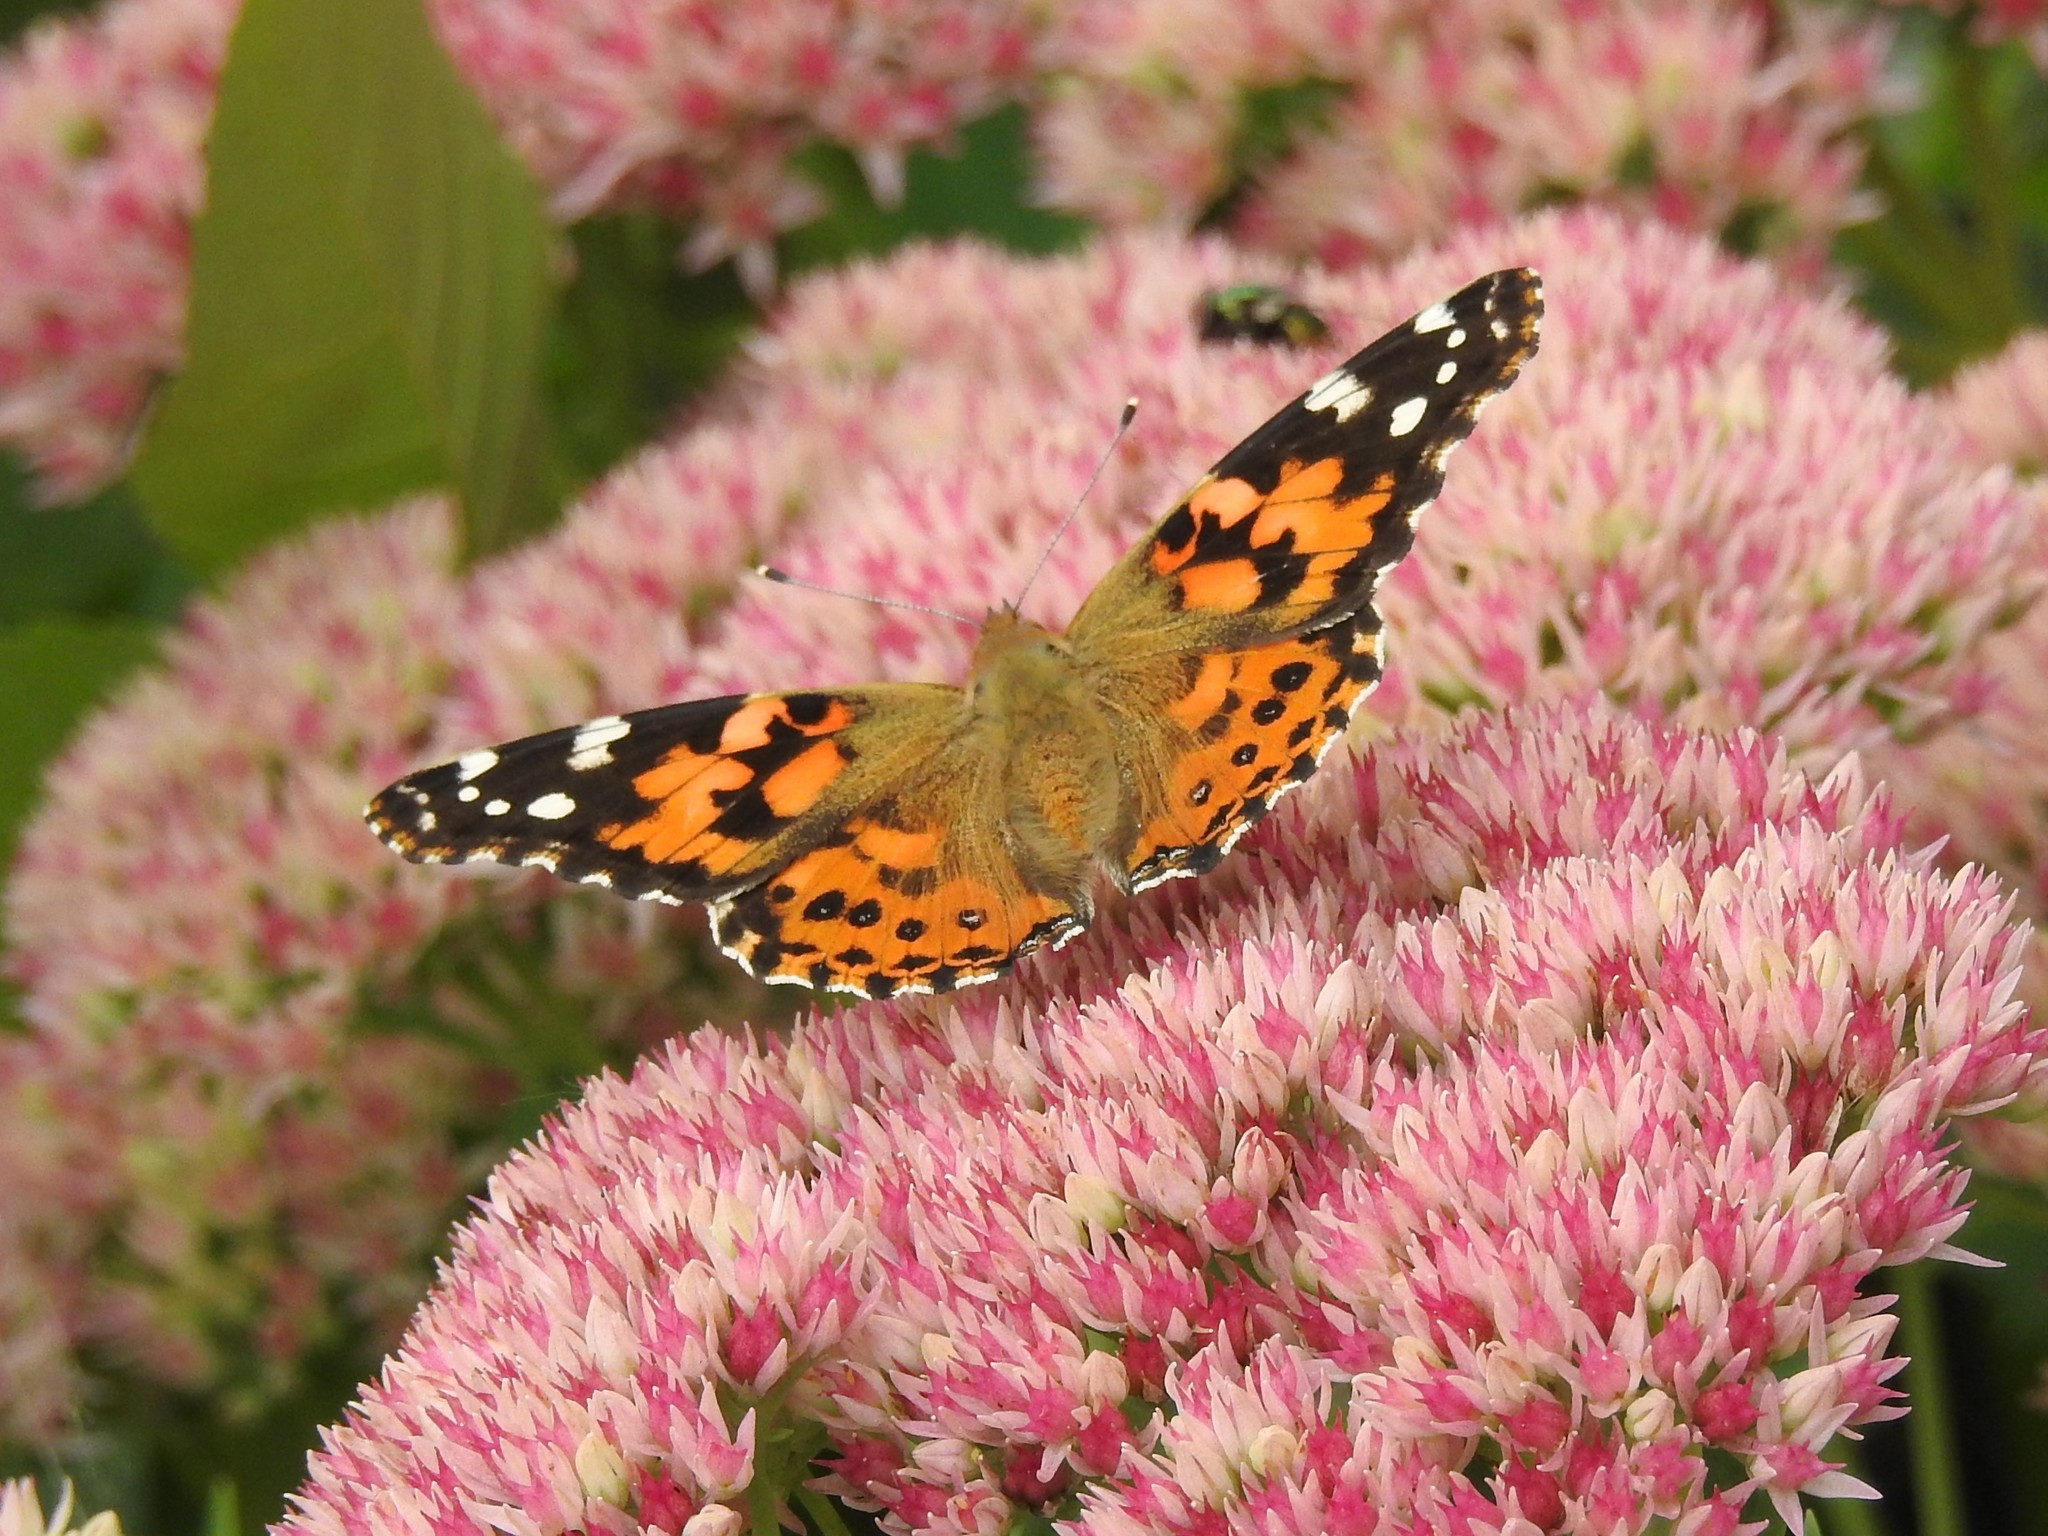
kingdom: Animalia
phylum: Arthropoda
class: Insecta
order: Lepidoptera
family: Nymphalidae
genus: Vanessa
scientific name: Vanessa cardui
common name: Painted lady
